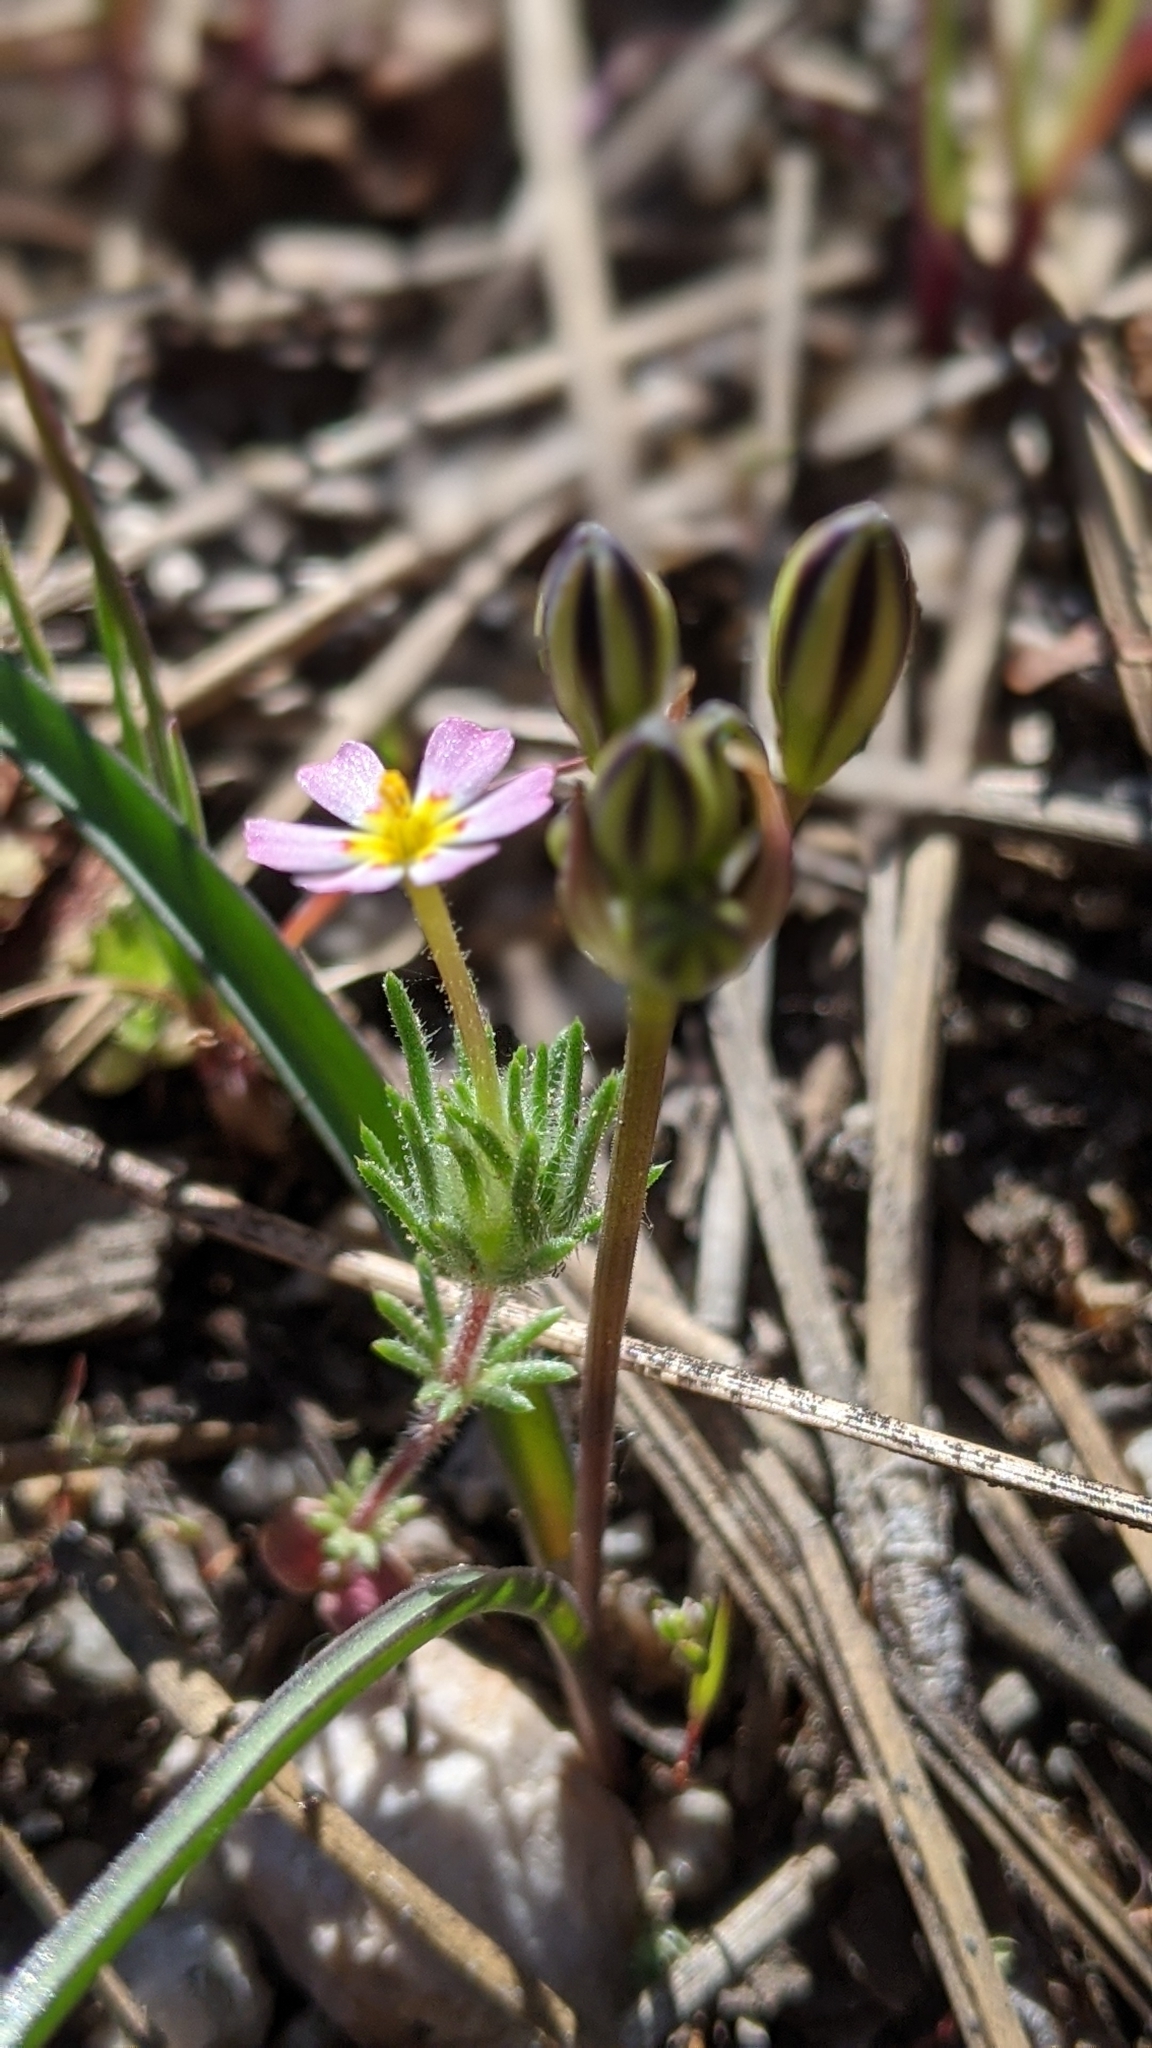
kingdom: Plantae
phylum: Tracheophyta
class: Magnoliopsida
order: Ericales
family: Polemoniaceae
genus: Leptosiphon
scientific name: Leptosiphon ciliatus
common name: Whiskerbrush
